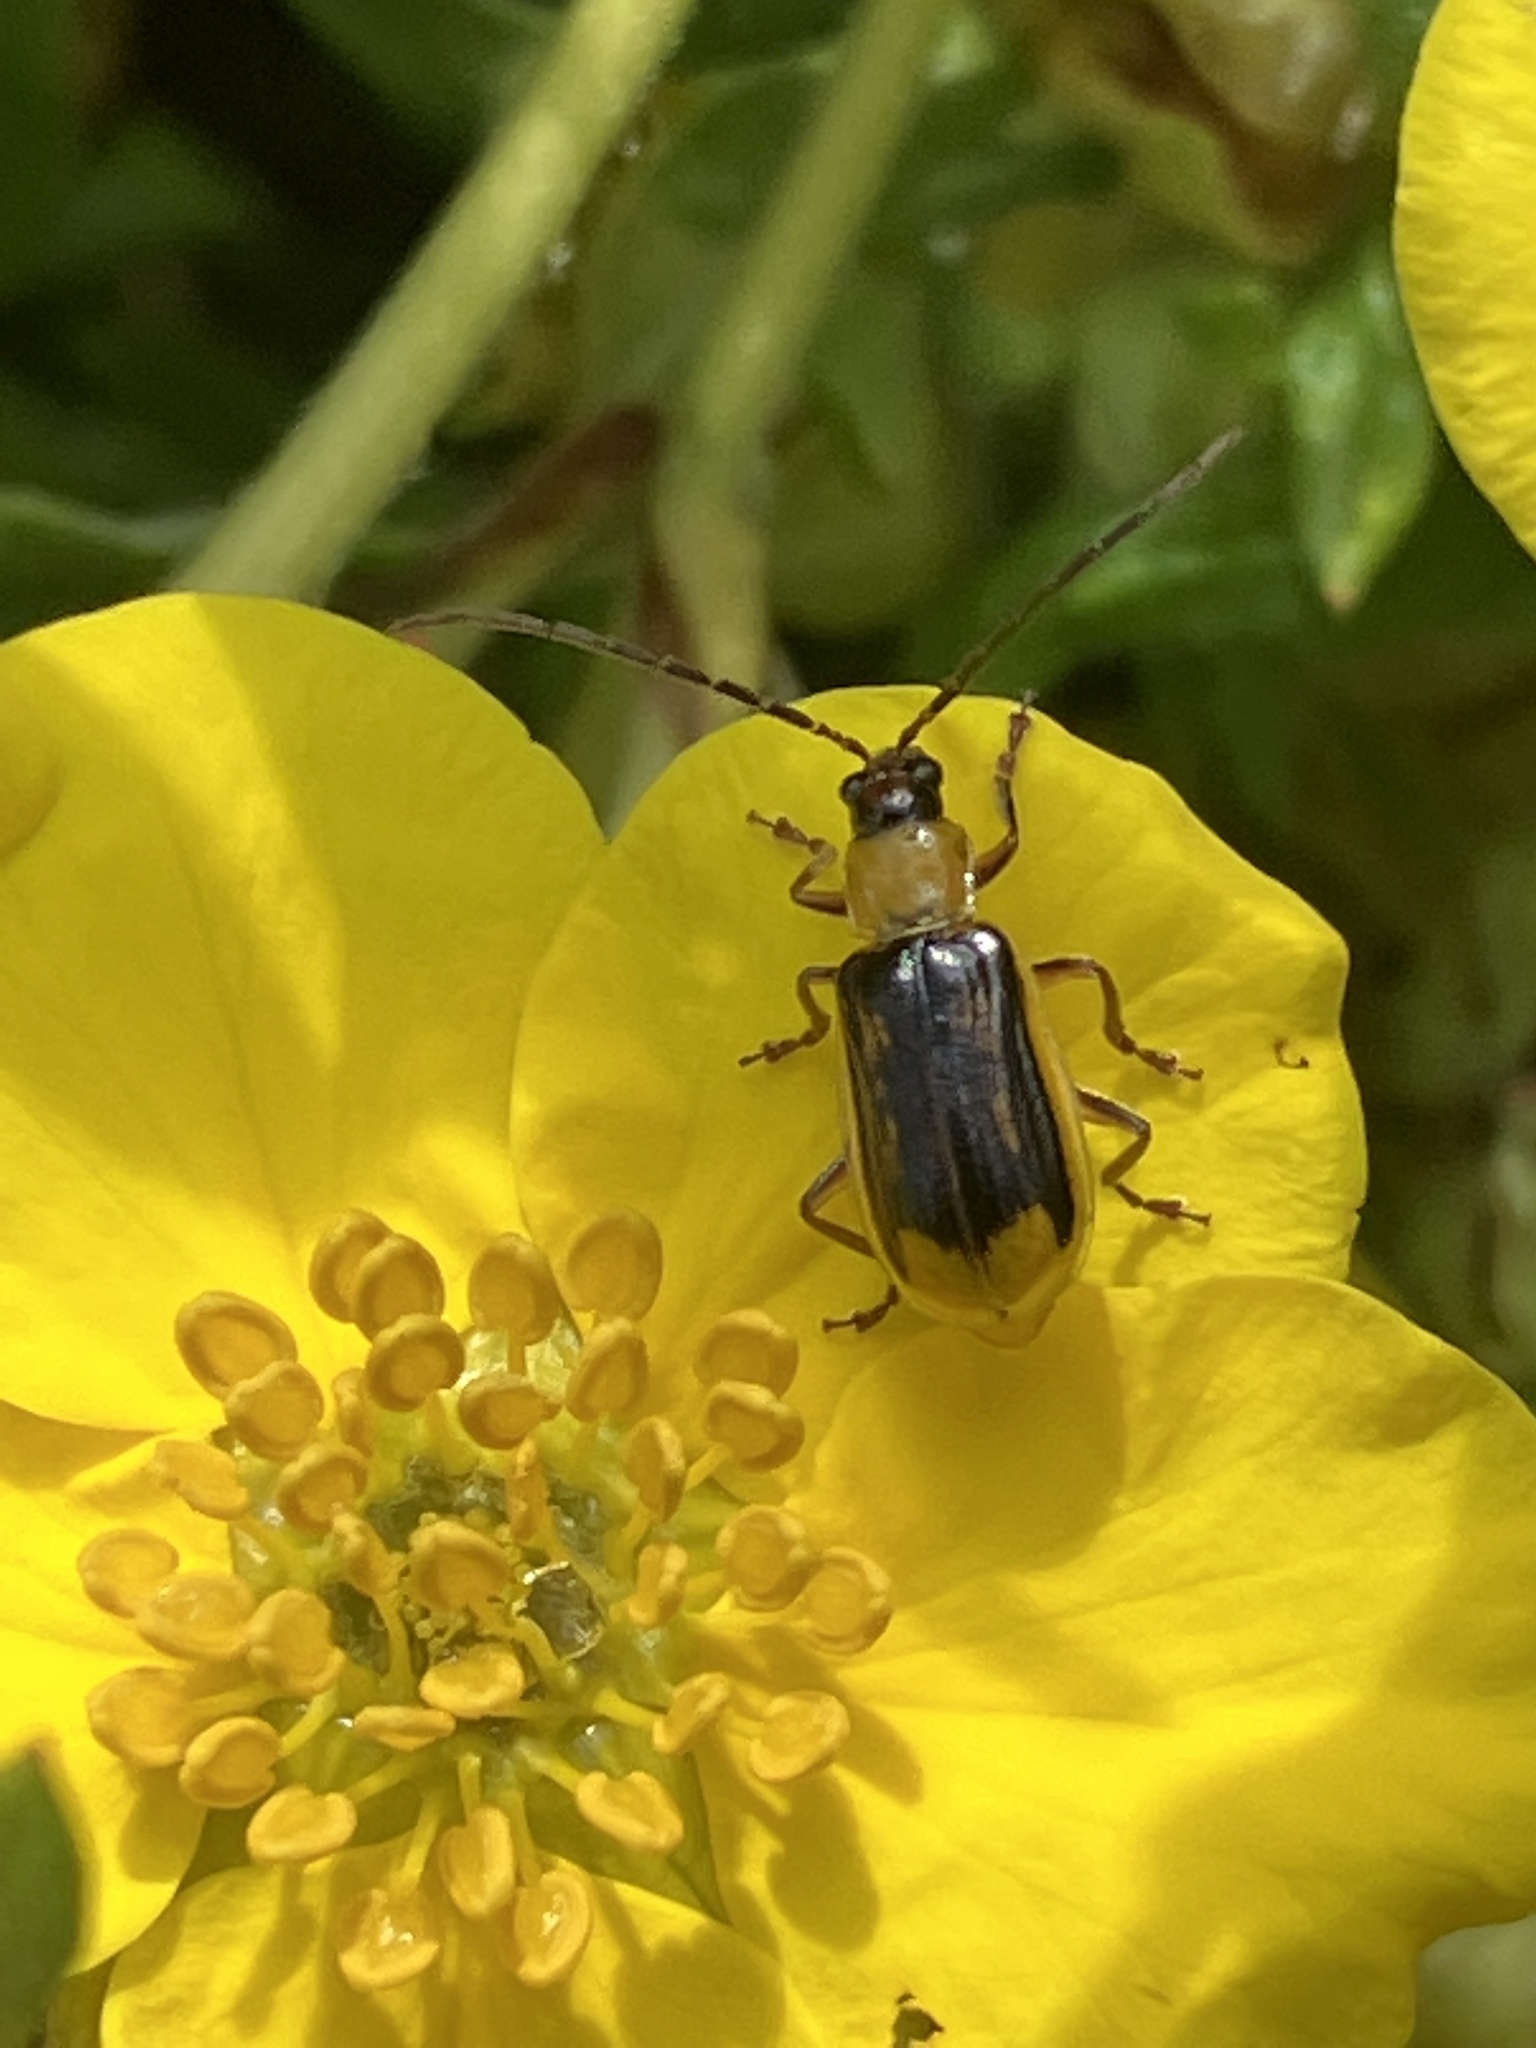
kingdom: Animalia
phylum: Arthropoda
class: Insecta
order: Coleoptera
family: Chrysomelidae
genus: Diabrotica
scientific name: Diabrotica virgifera
